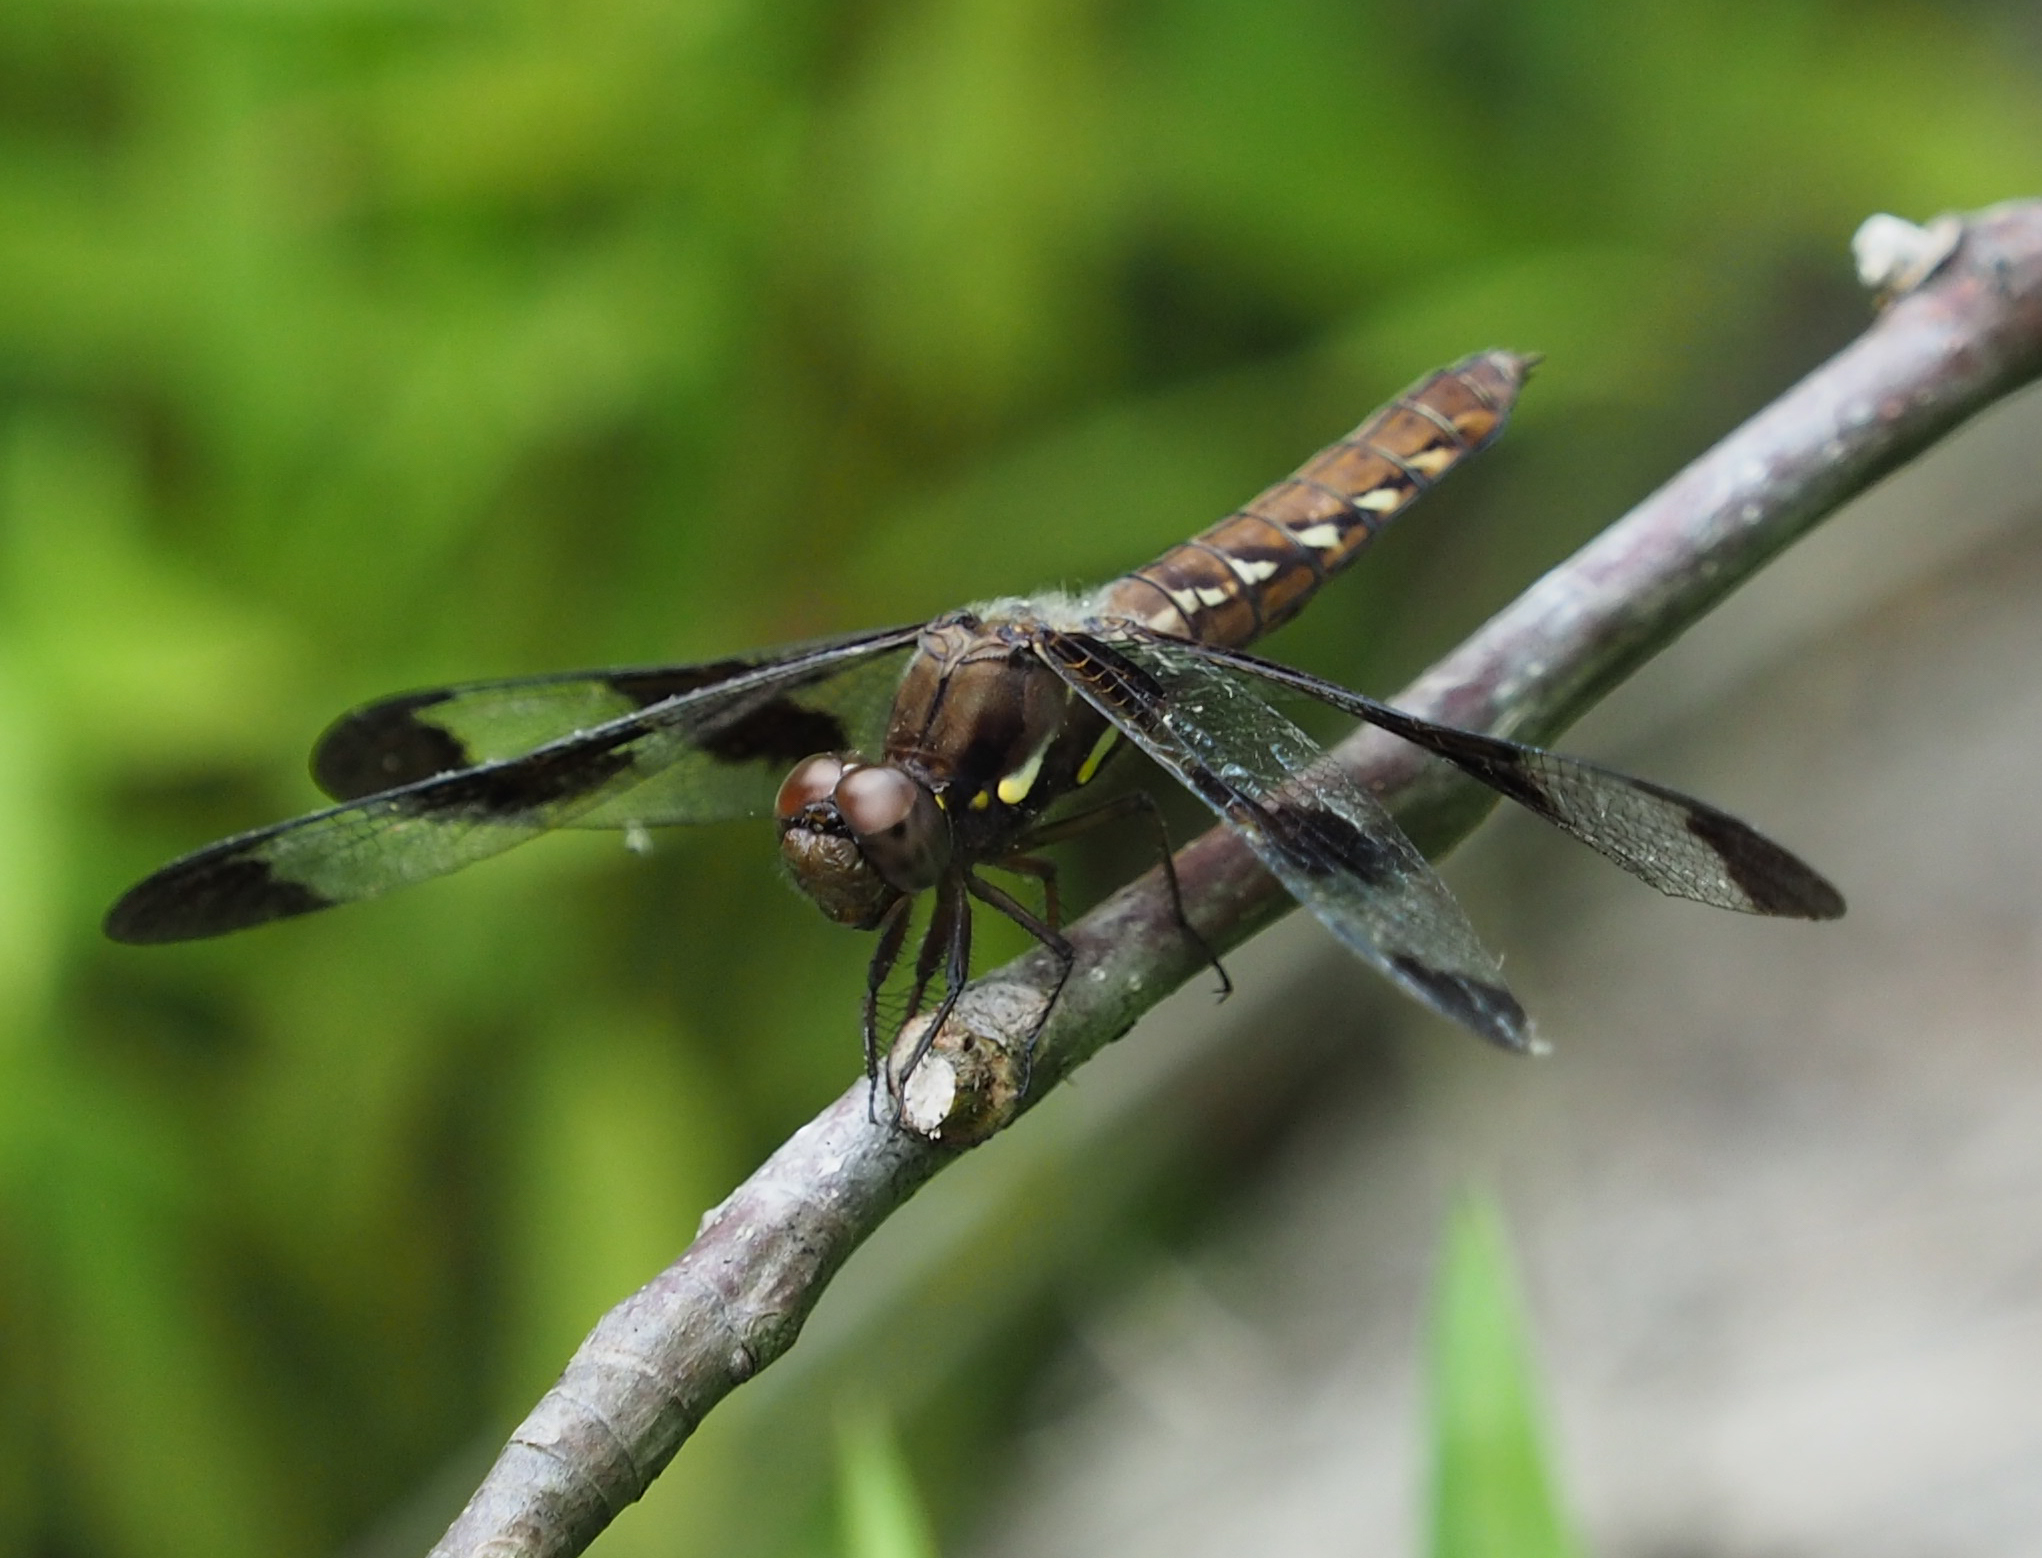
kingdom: Animalia
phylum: Arthropoda
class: Insecta
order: Odonata
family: Libellulidae
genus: Plathemis
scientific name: Plathemis lydia
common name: Common whitetail
